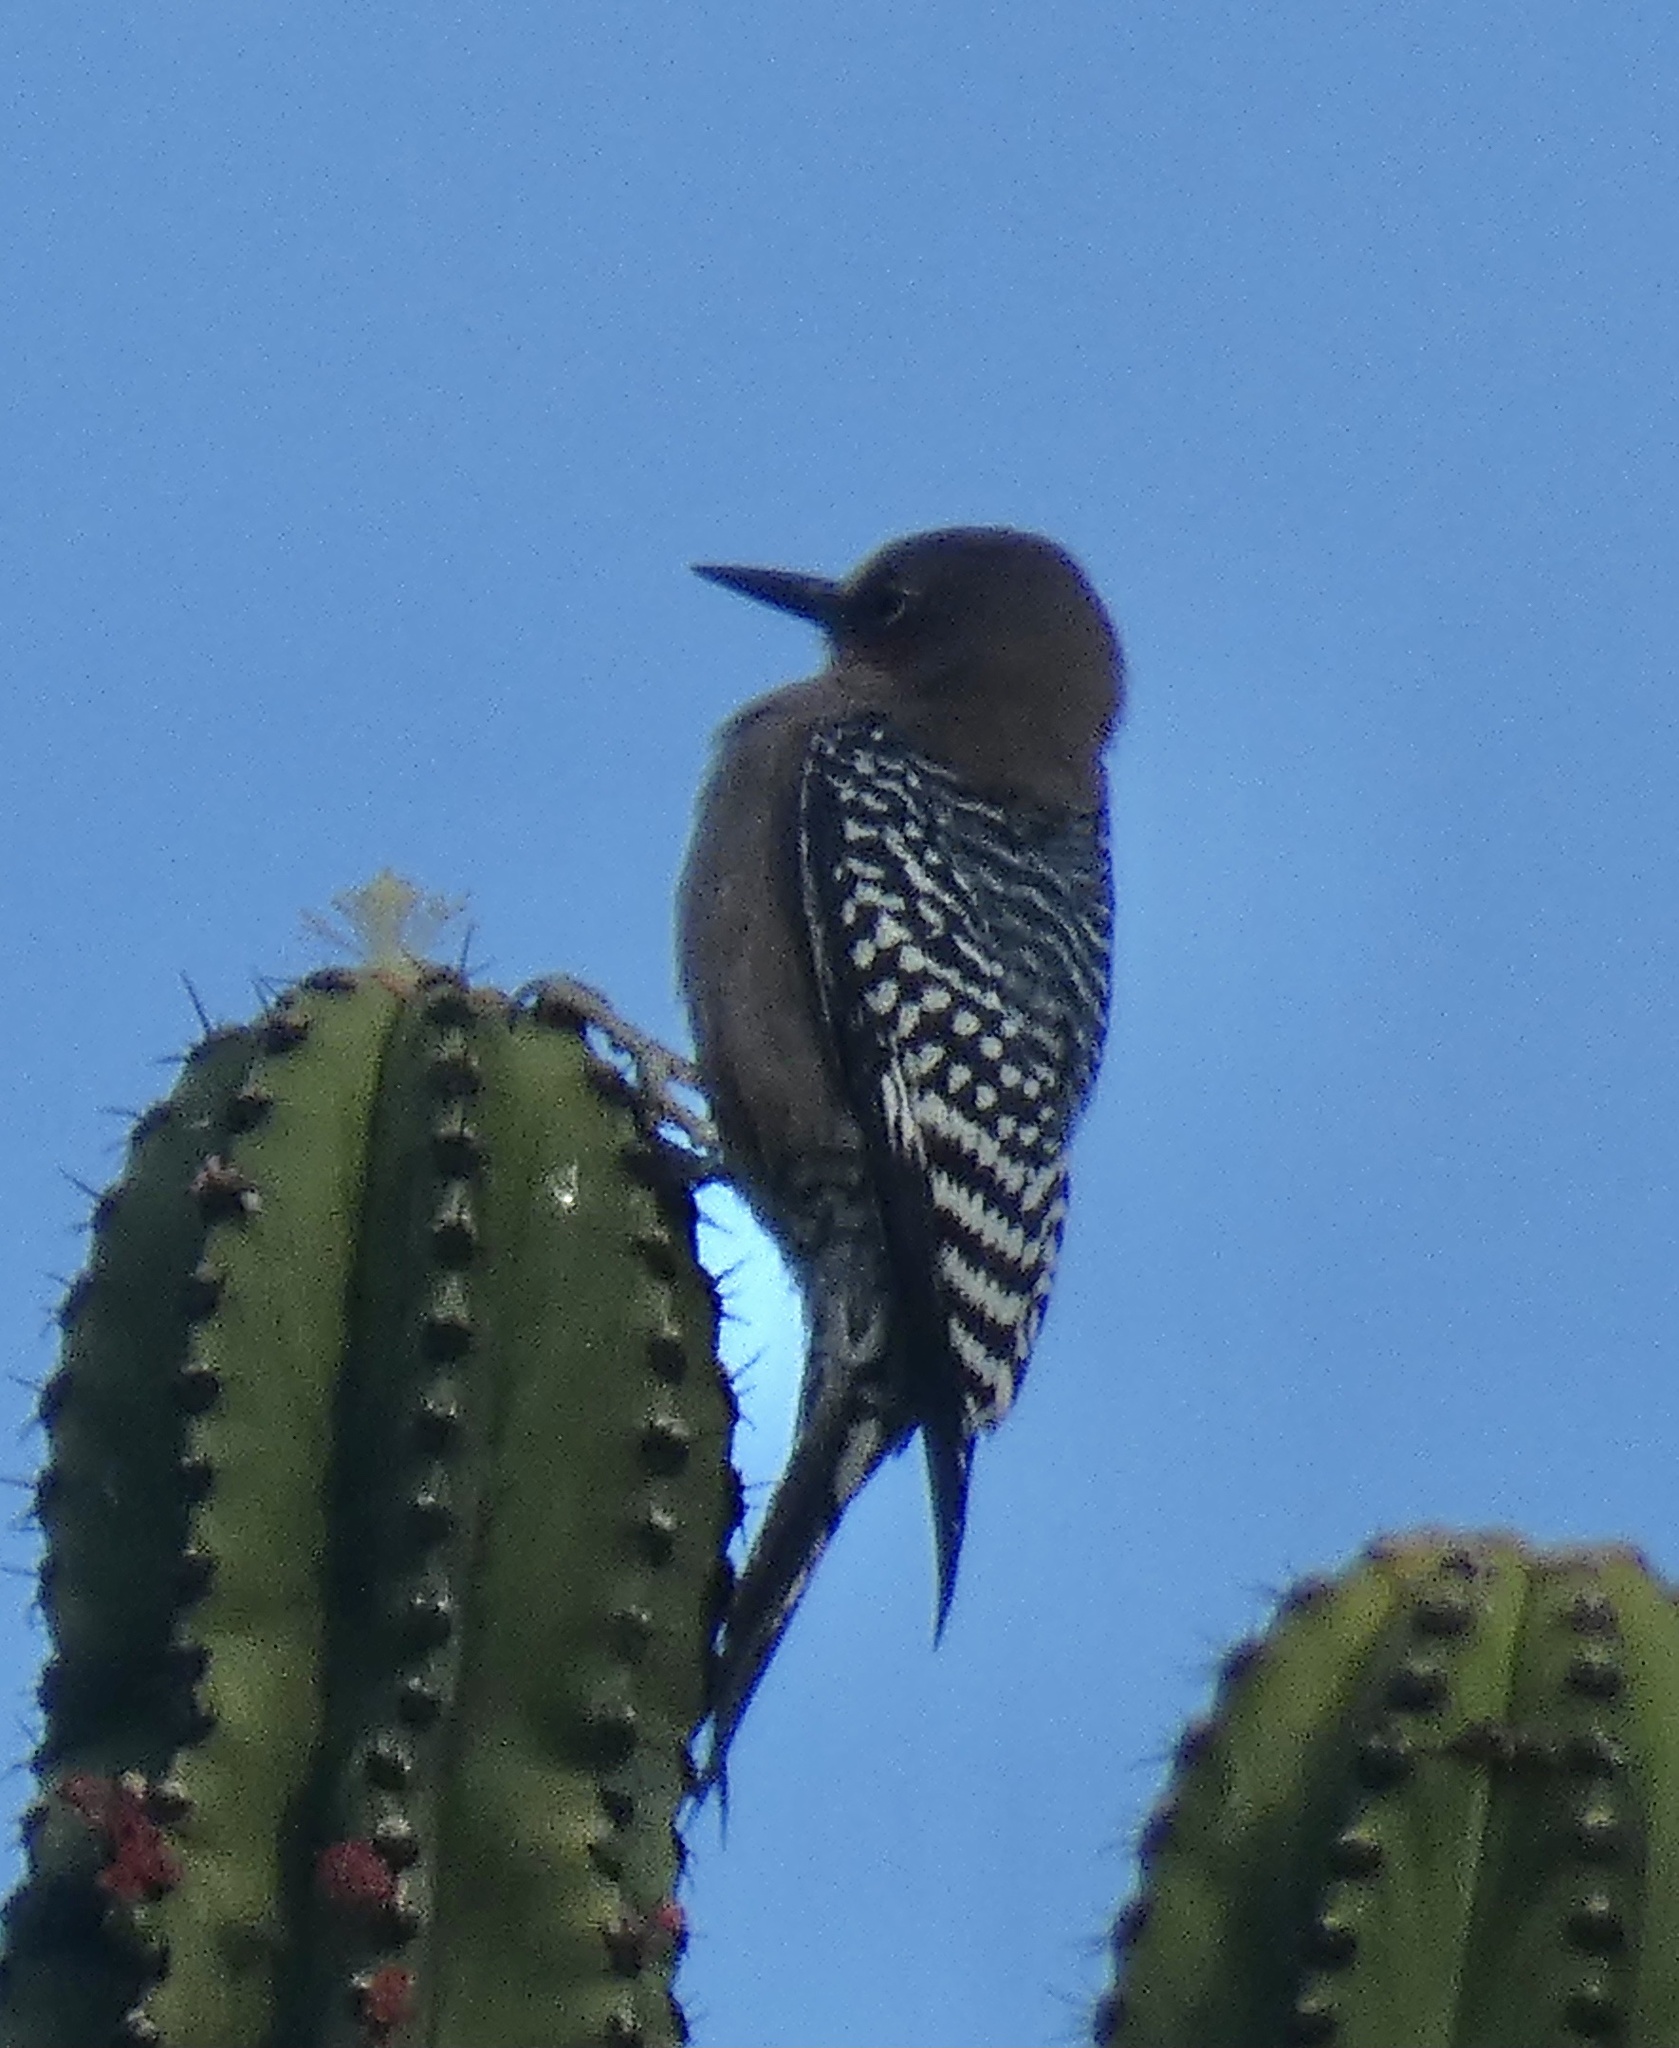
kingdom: Animalia
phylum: Chordata
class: Aves
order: Piciformes
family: Picidae
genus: Melanerpes
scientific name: Melanerpes hypopolius
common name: Grey-breasted woodpecker
